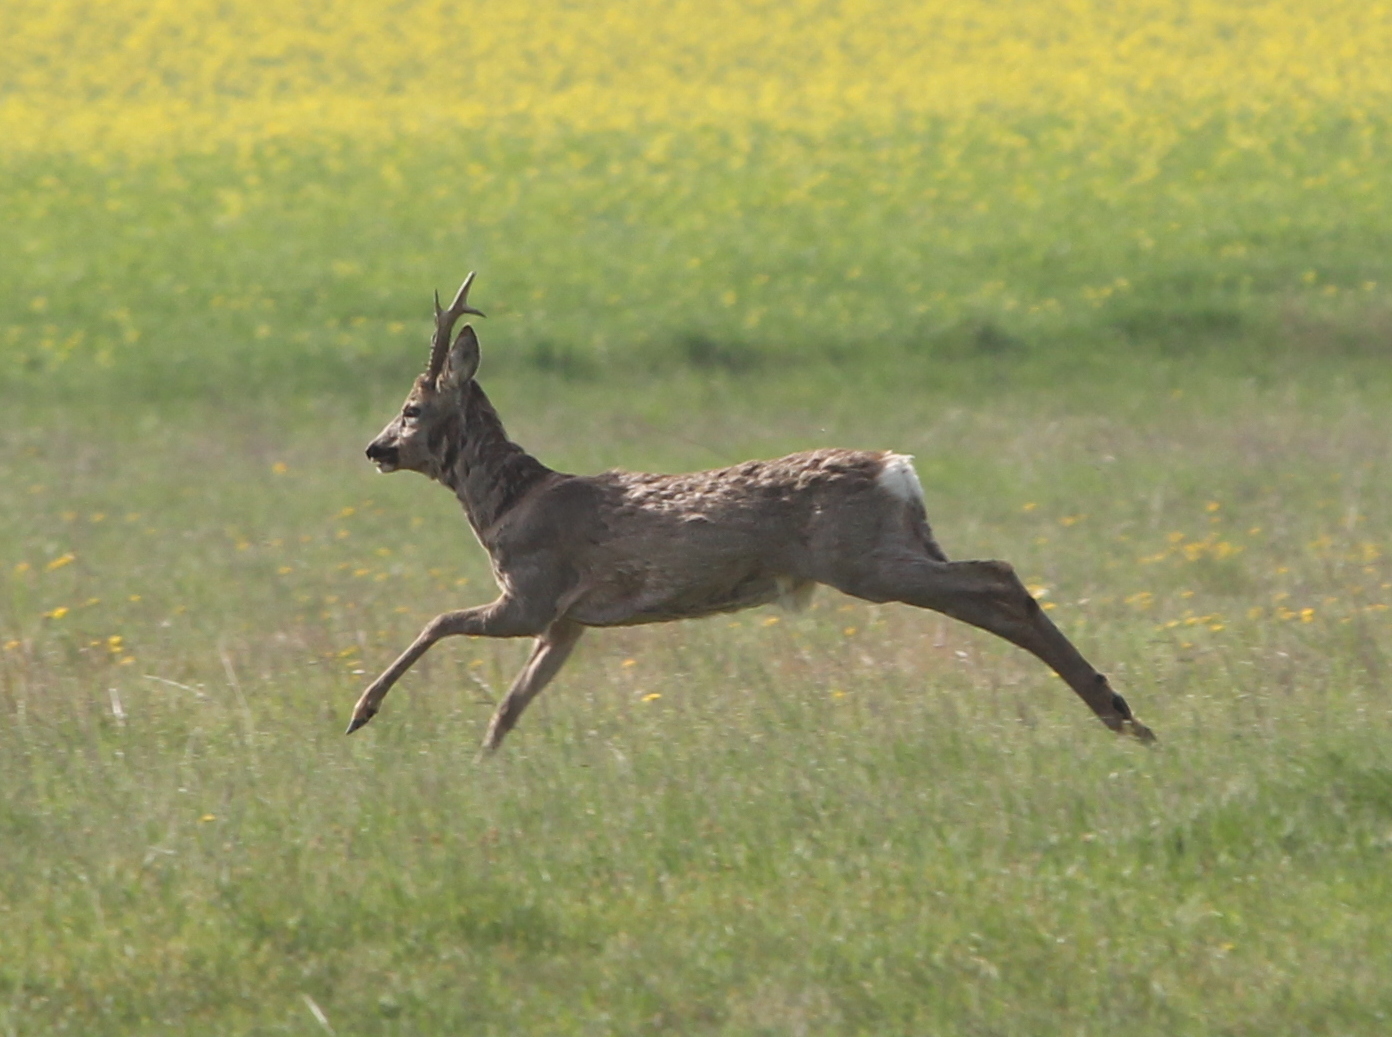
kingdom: Animalia
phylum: Chordata
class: Mammalia
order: Artiodactyla
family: Cervidae
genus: Capreolus
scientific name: Capreolus capreolus
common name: Western roe deer
